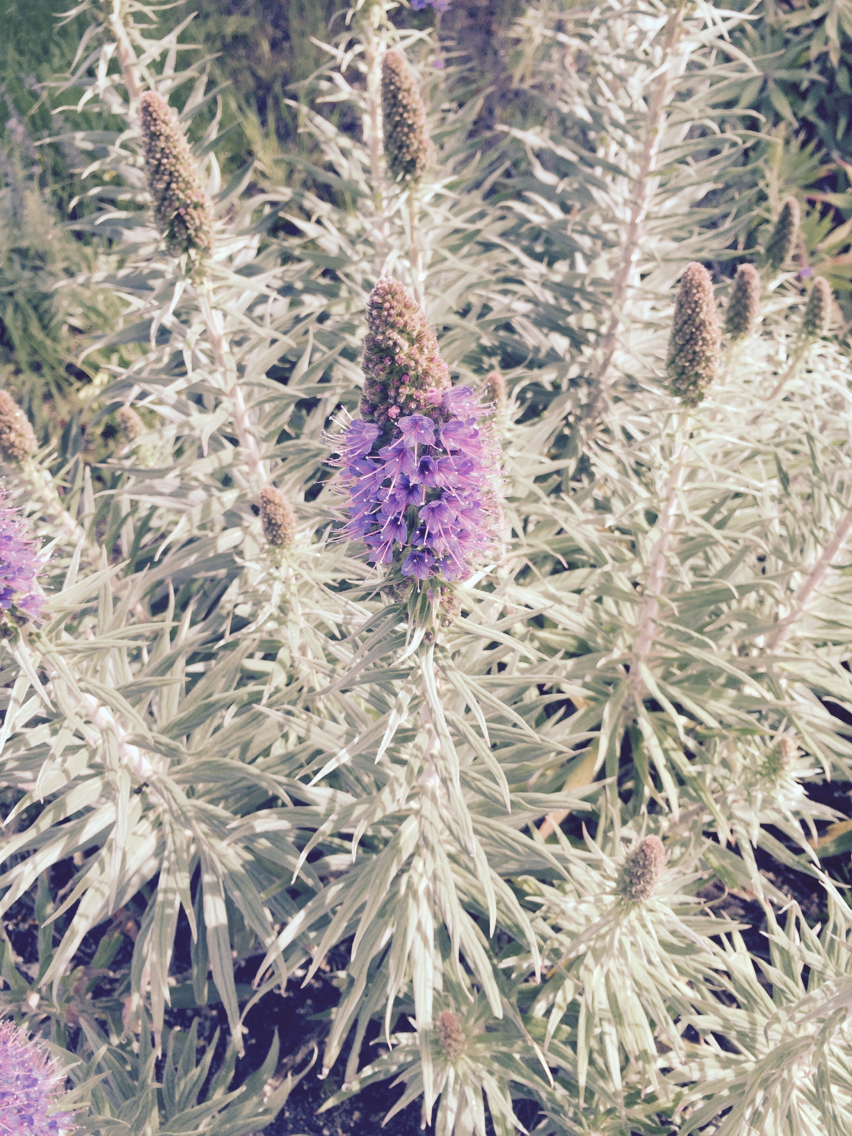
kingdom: Plantae
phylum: Tracheophyta
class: Magnoliopsida
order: Boraginales
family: Boraginaceae
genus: Echium
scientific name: Echium candicans
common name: Pride of madeira
